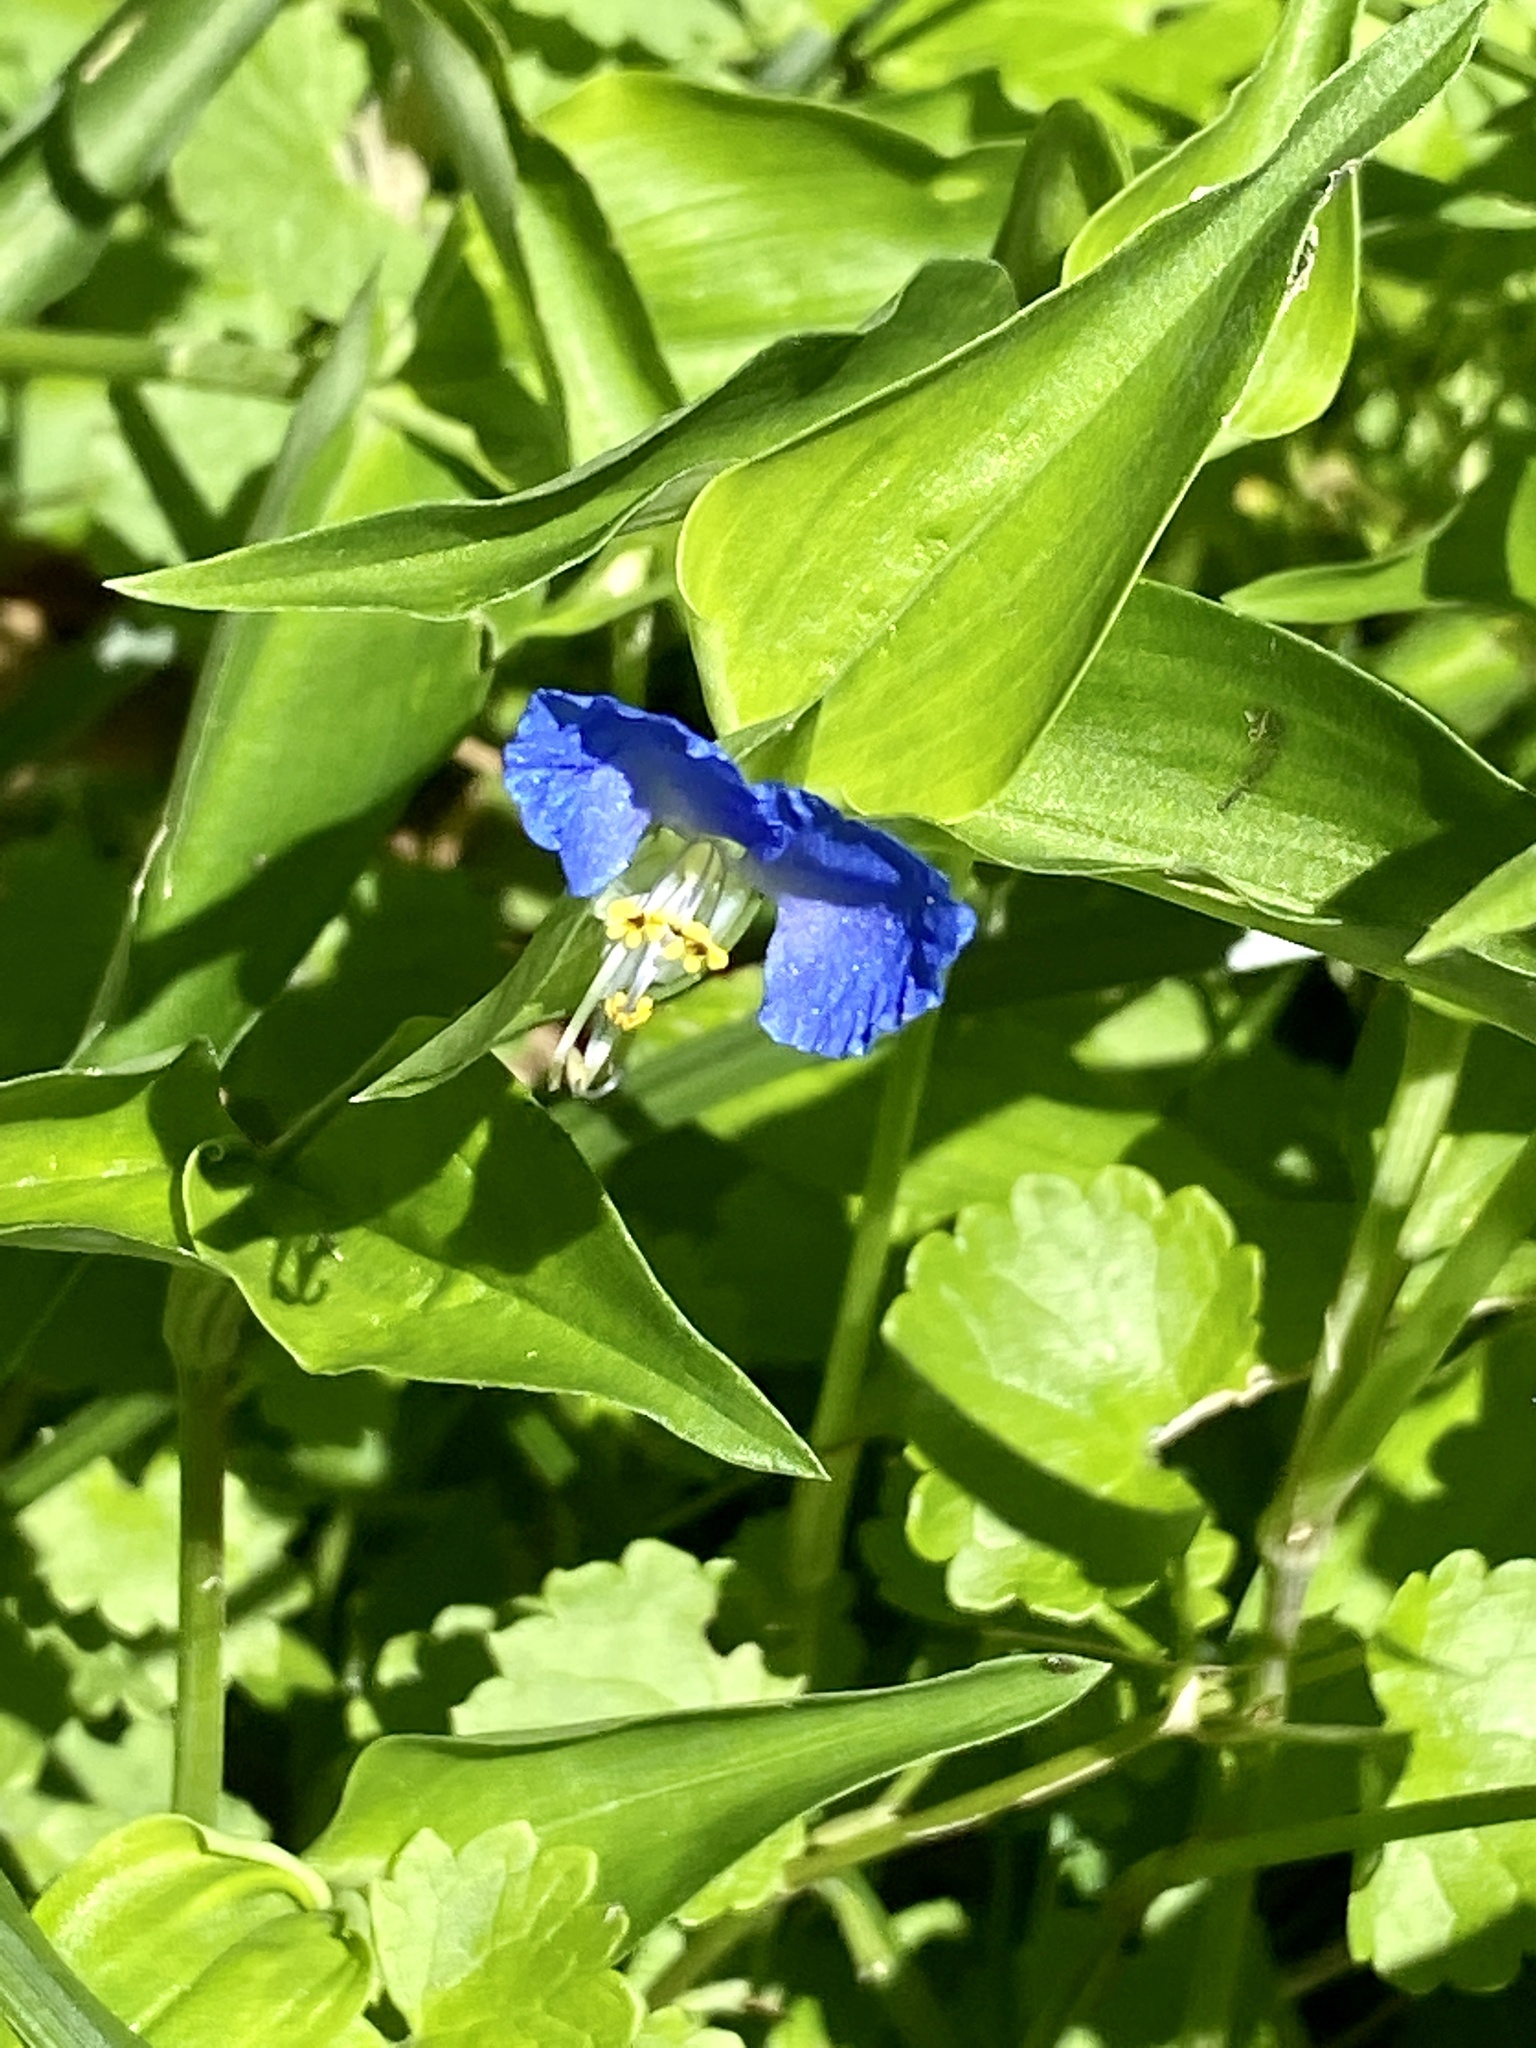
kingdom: Plantae
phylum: Tracheophyta
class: Liliopsida
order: Commelinales
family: Commelinaceae
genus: Commelina
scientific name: Commelina communis
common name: Asiatic dayflower
